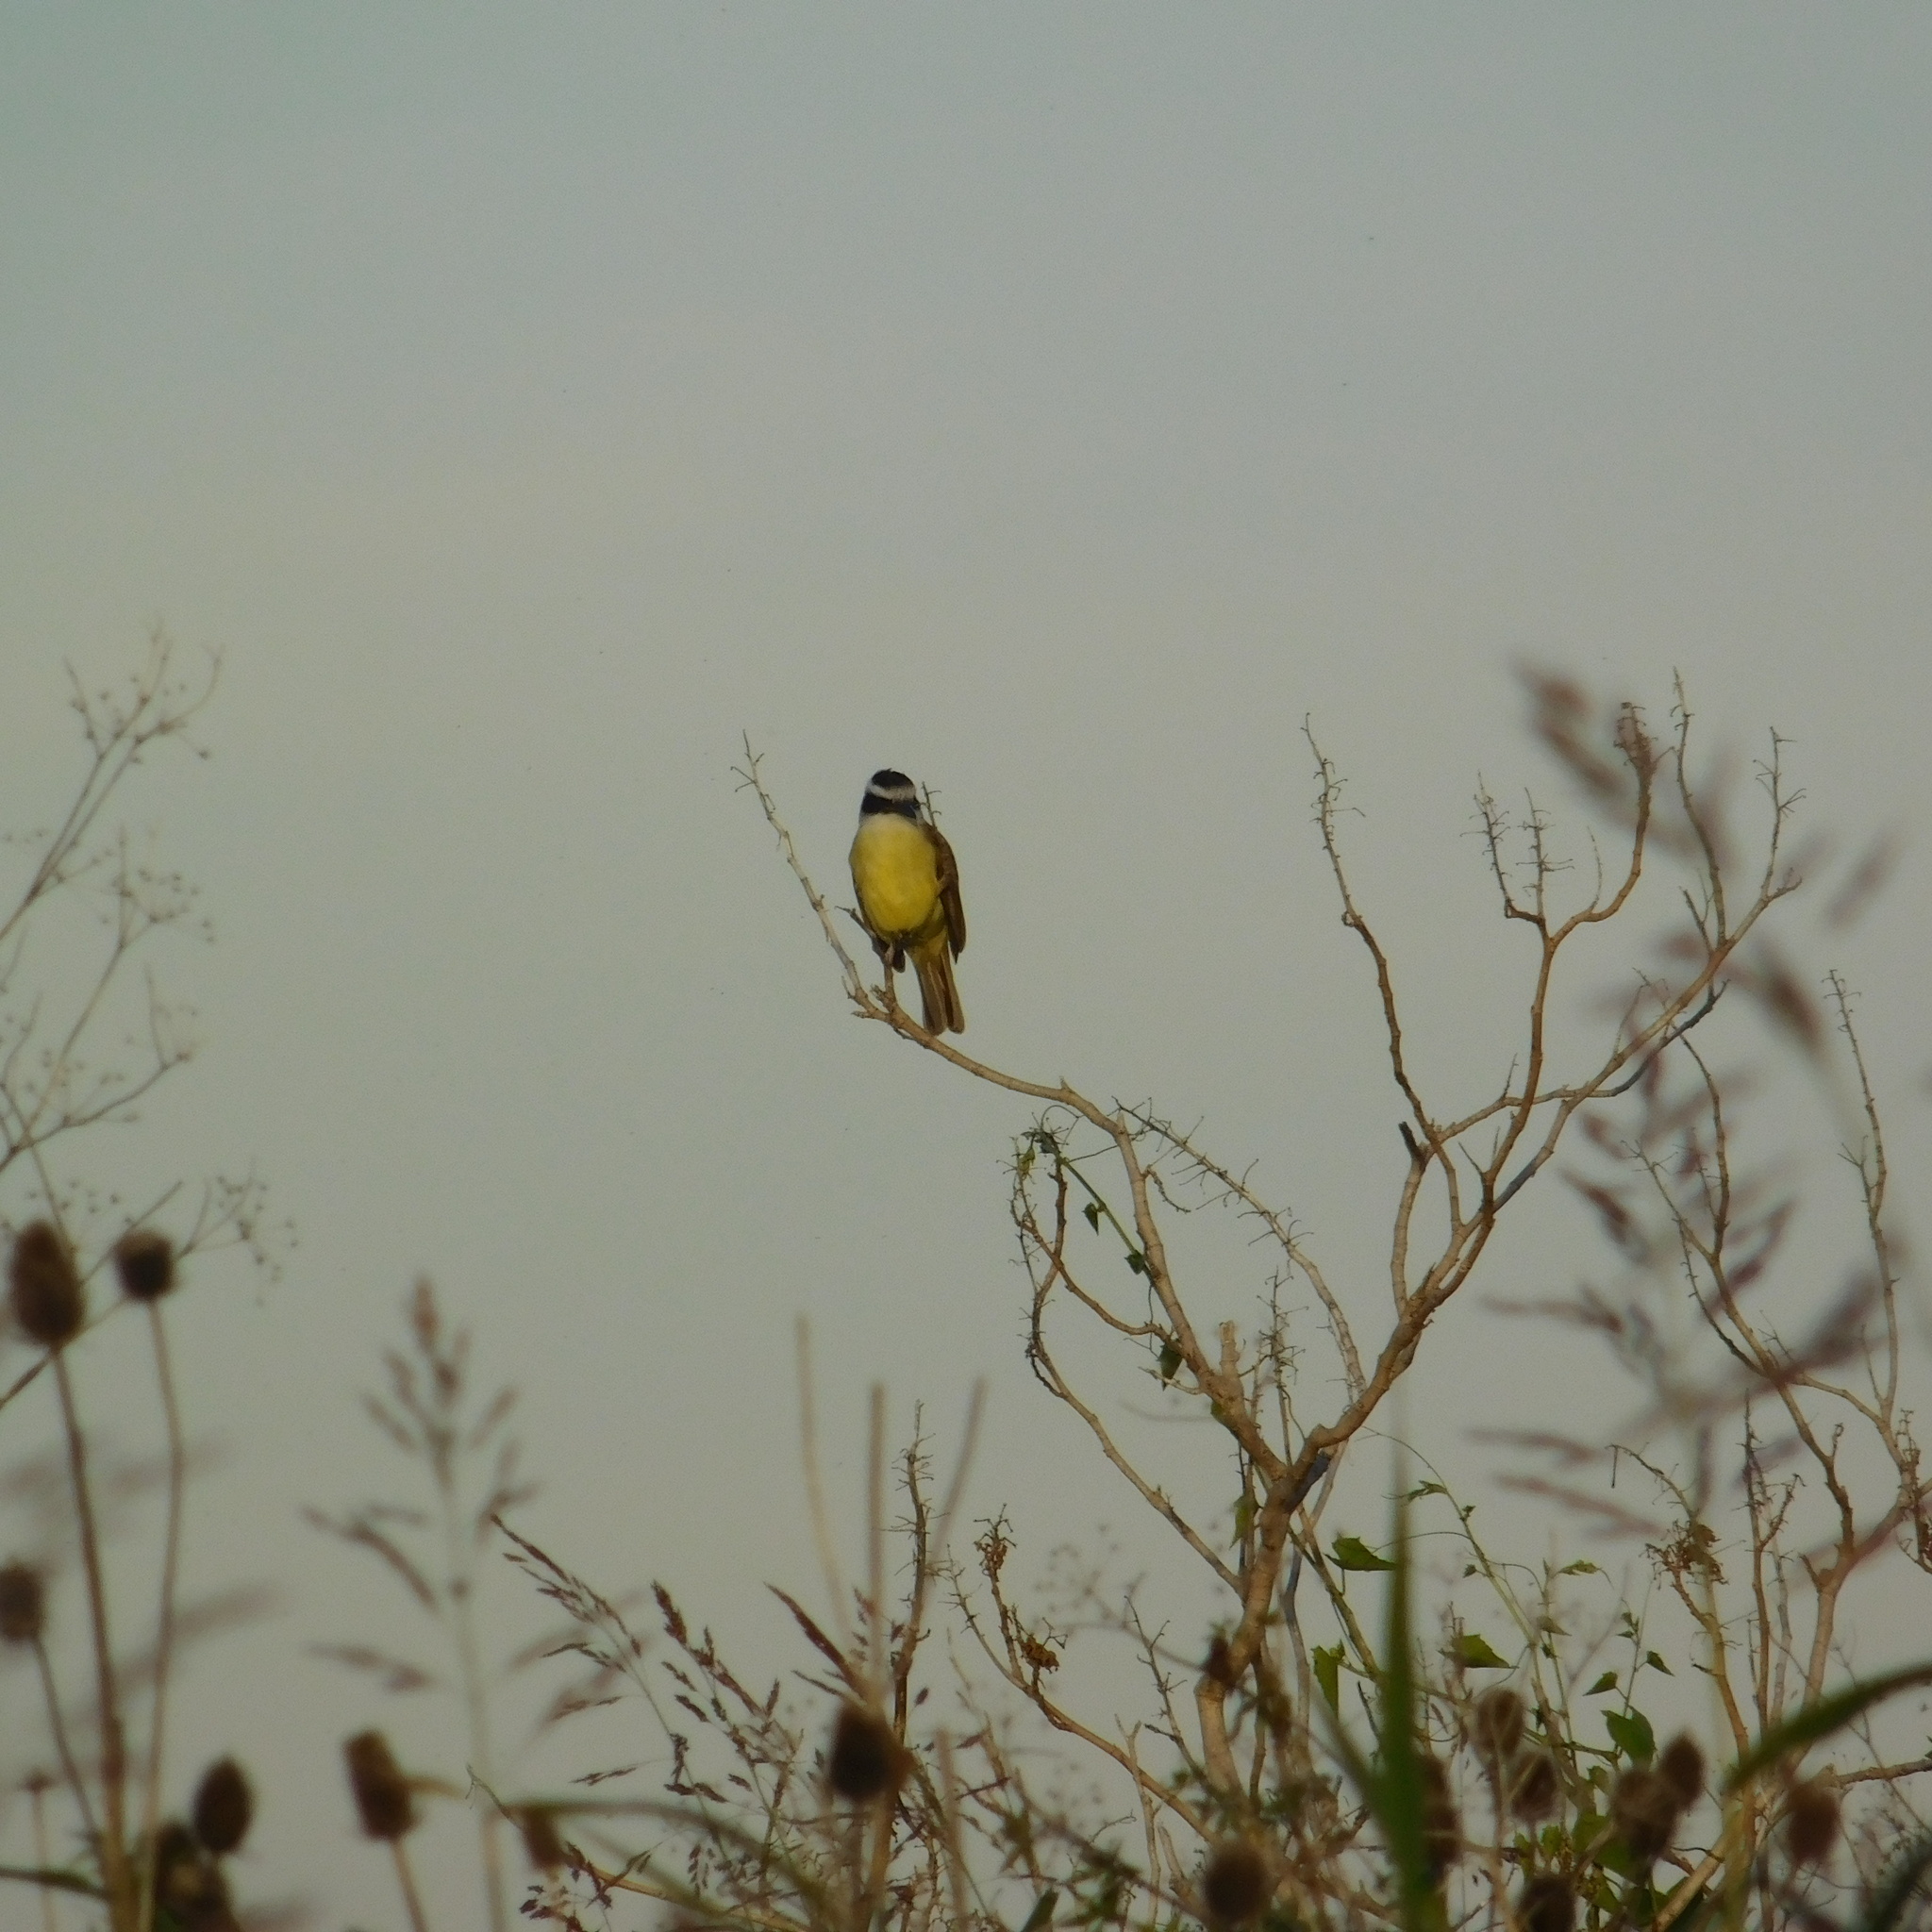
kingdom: Animalia
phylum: Chordata
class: Aves
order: Passeriformes
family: Tyrannidae
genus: Pitangus
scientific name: Pitangus sulphuratus
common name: Great kiskadee
